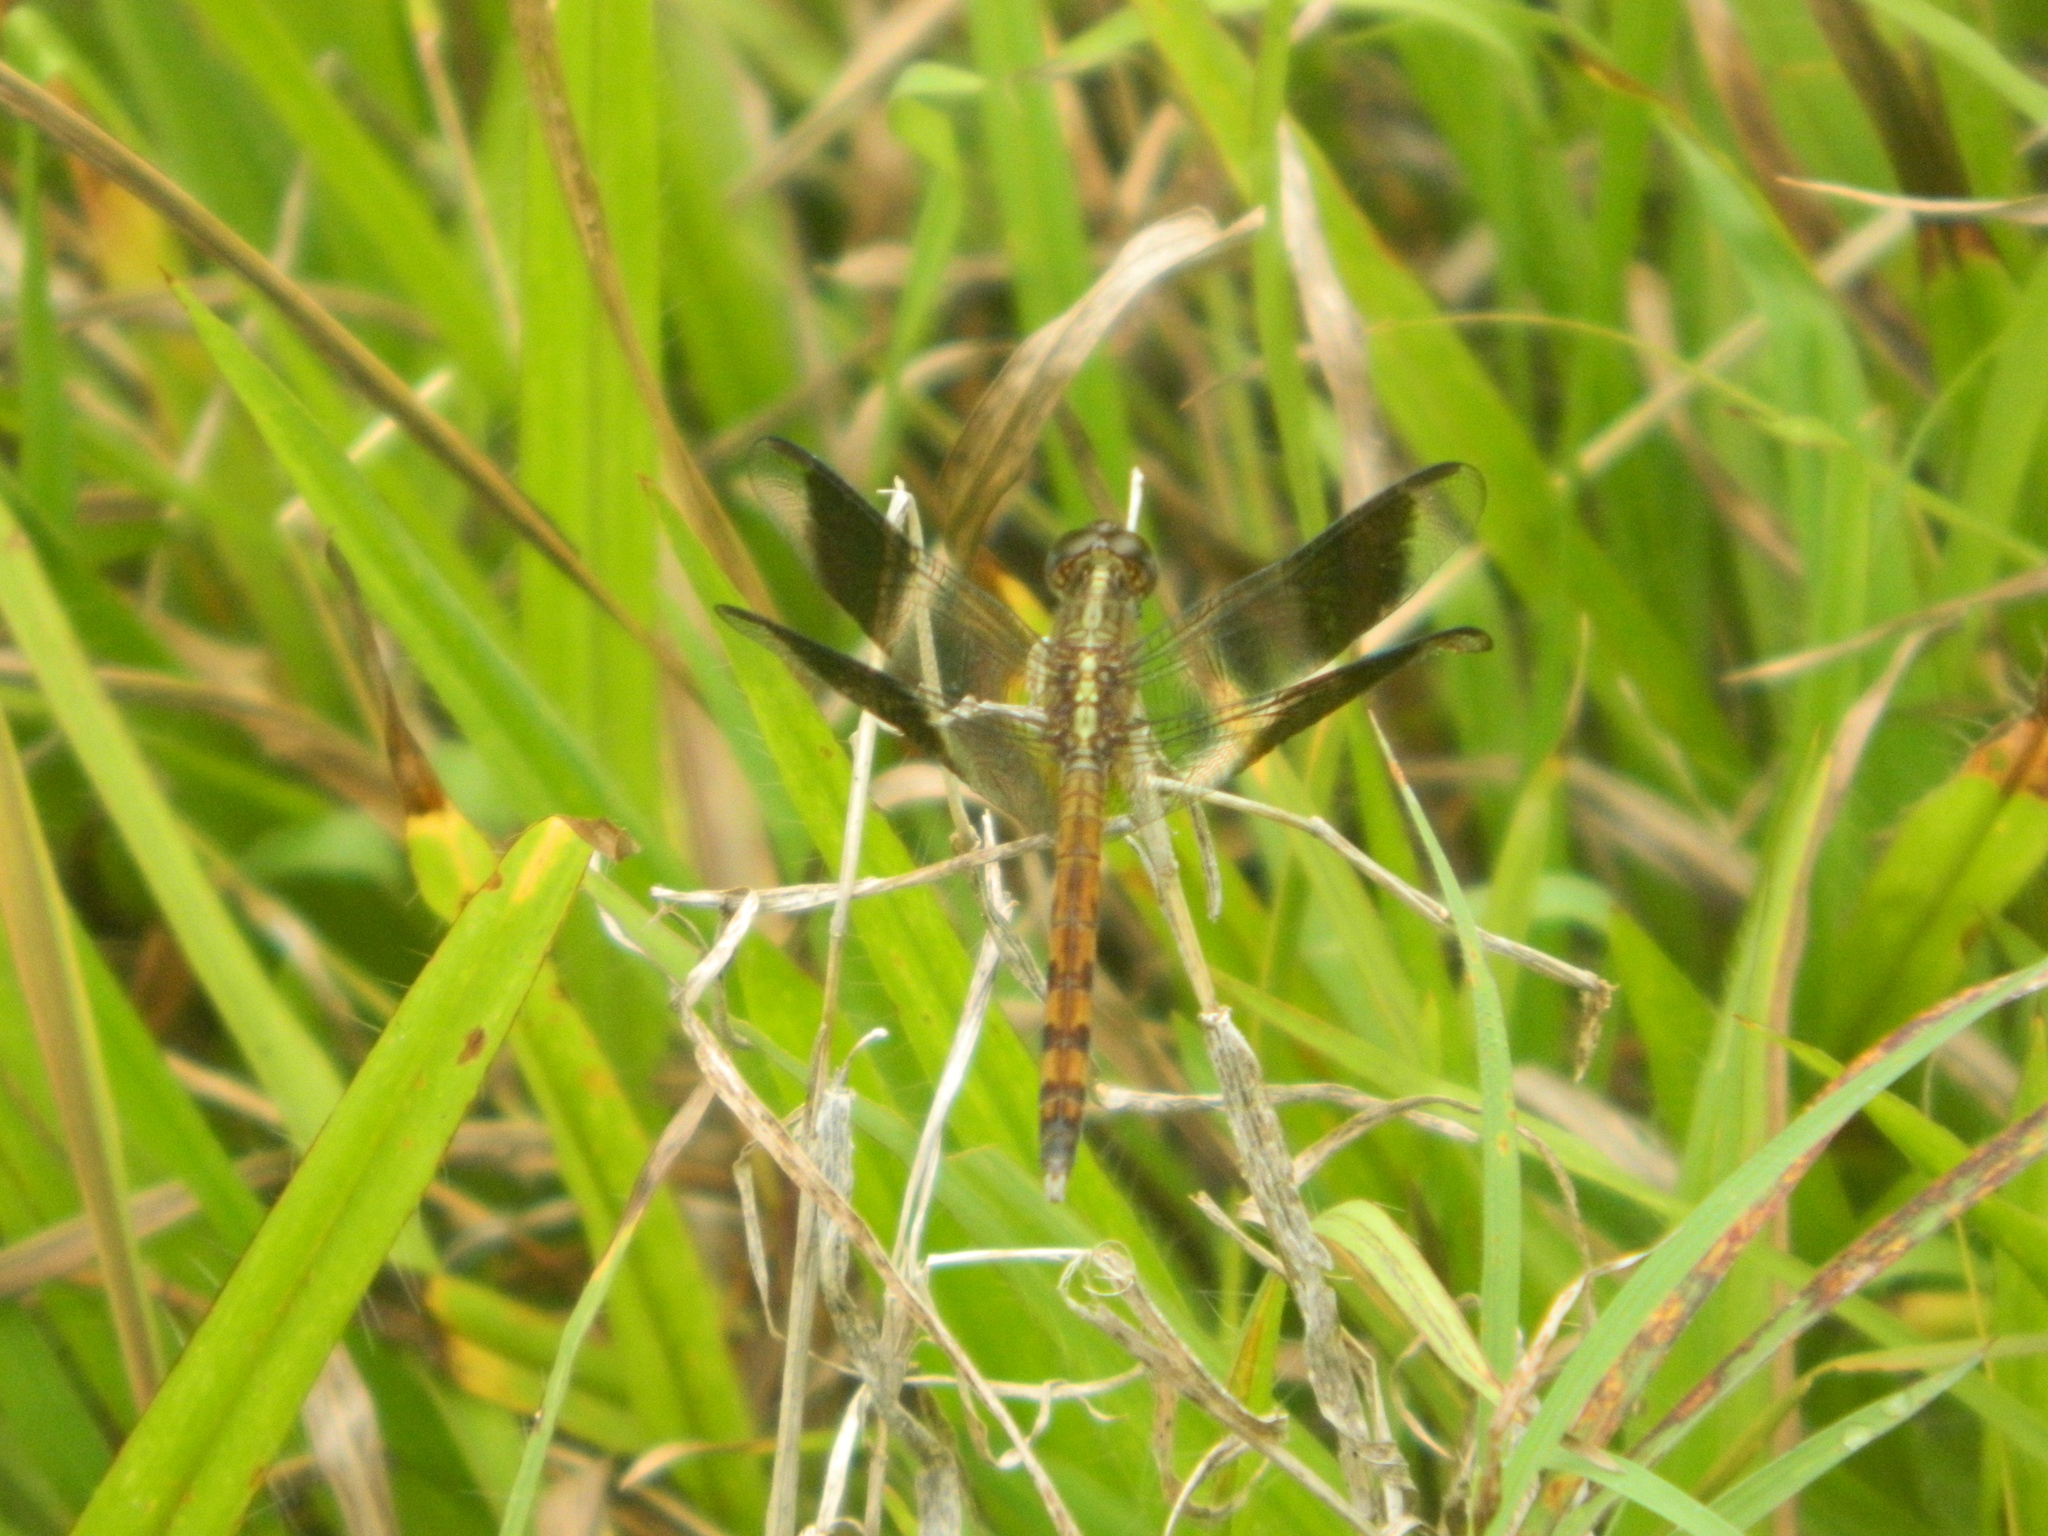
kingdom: Animalia
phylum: Arthropoda
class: Insecta
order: Odonata
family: Libellulidae
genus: Erythrodiplax
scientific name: Erythrodiplax umbrata
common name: Band-winged dragonlet
